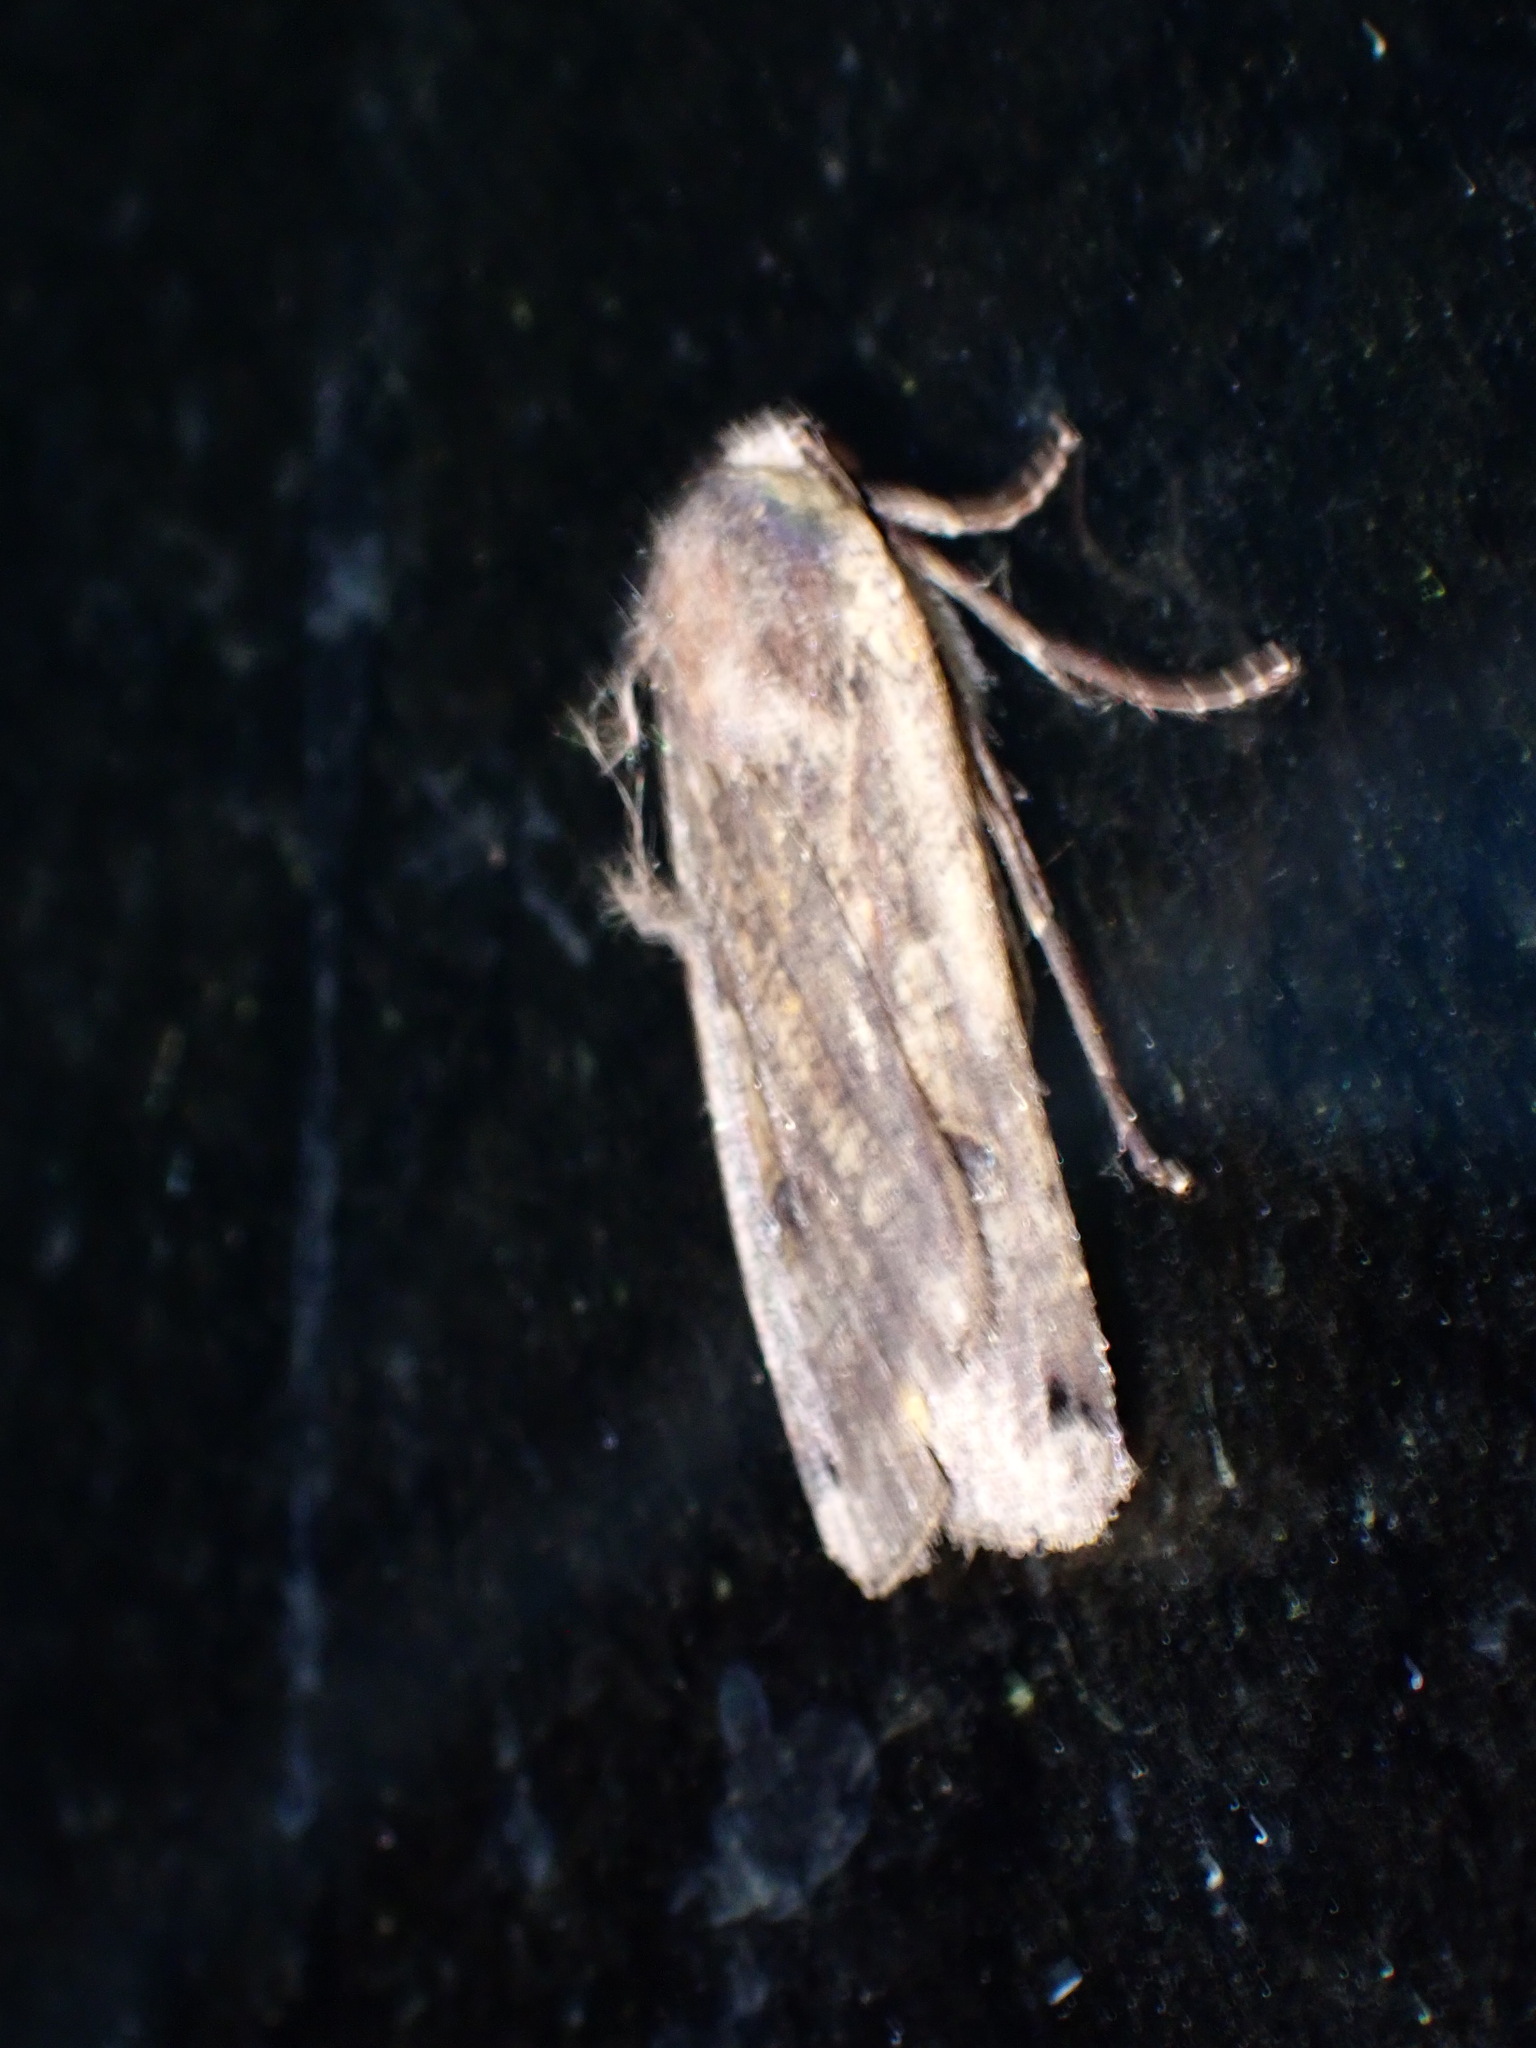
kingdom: Animalia
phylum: Arthropoda
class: Insecta
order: Lepidoptera
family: Noctuidae
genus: Noctua
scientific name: Noctua pronuba
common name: Large yellow underwing
